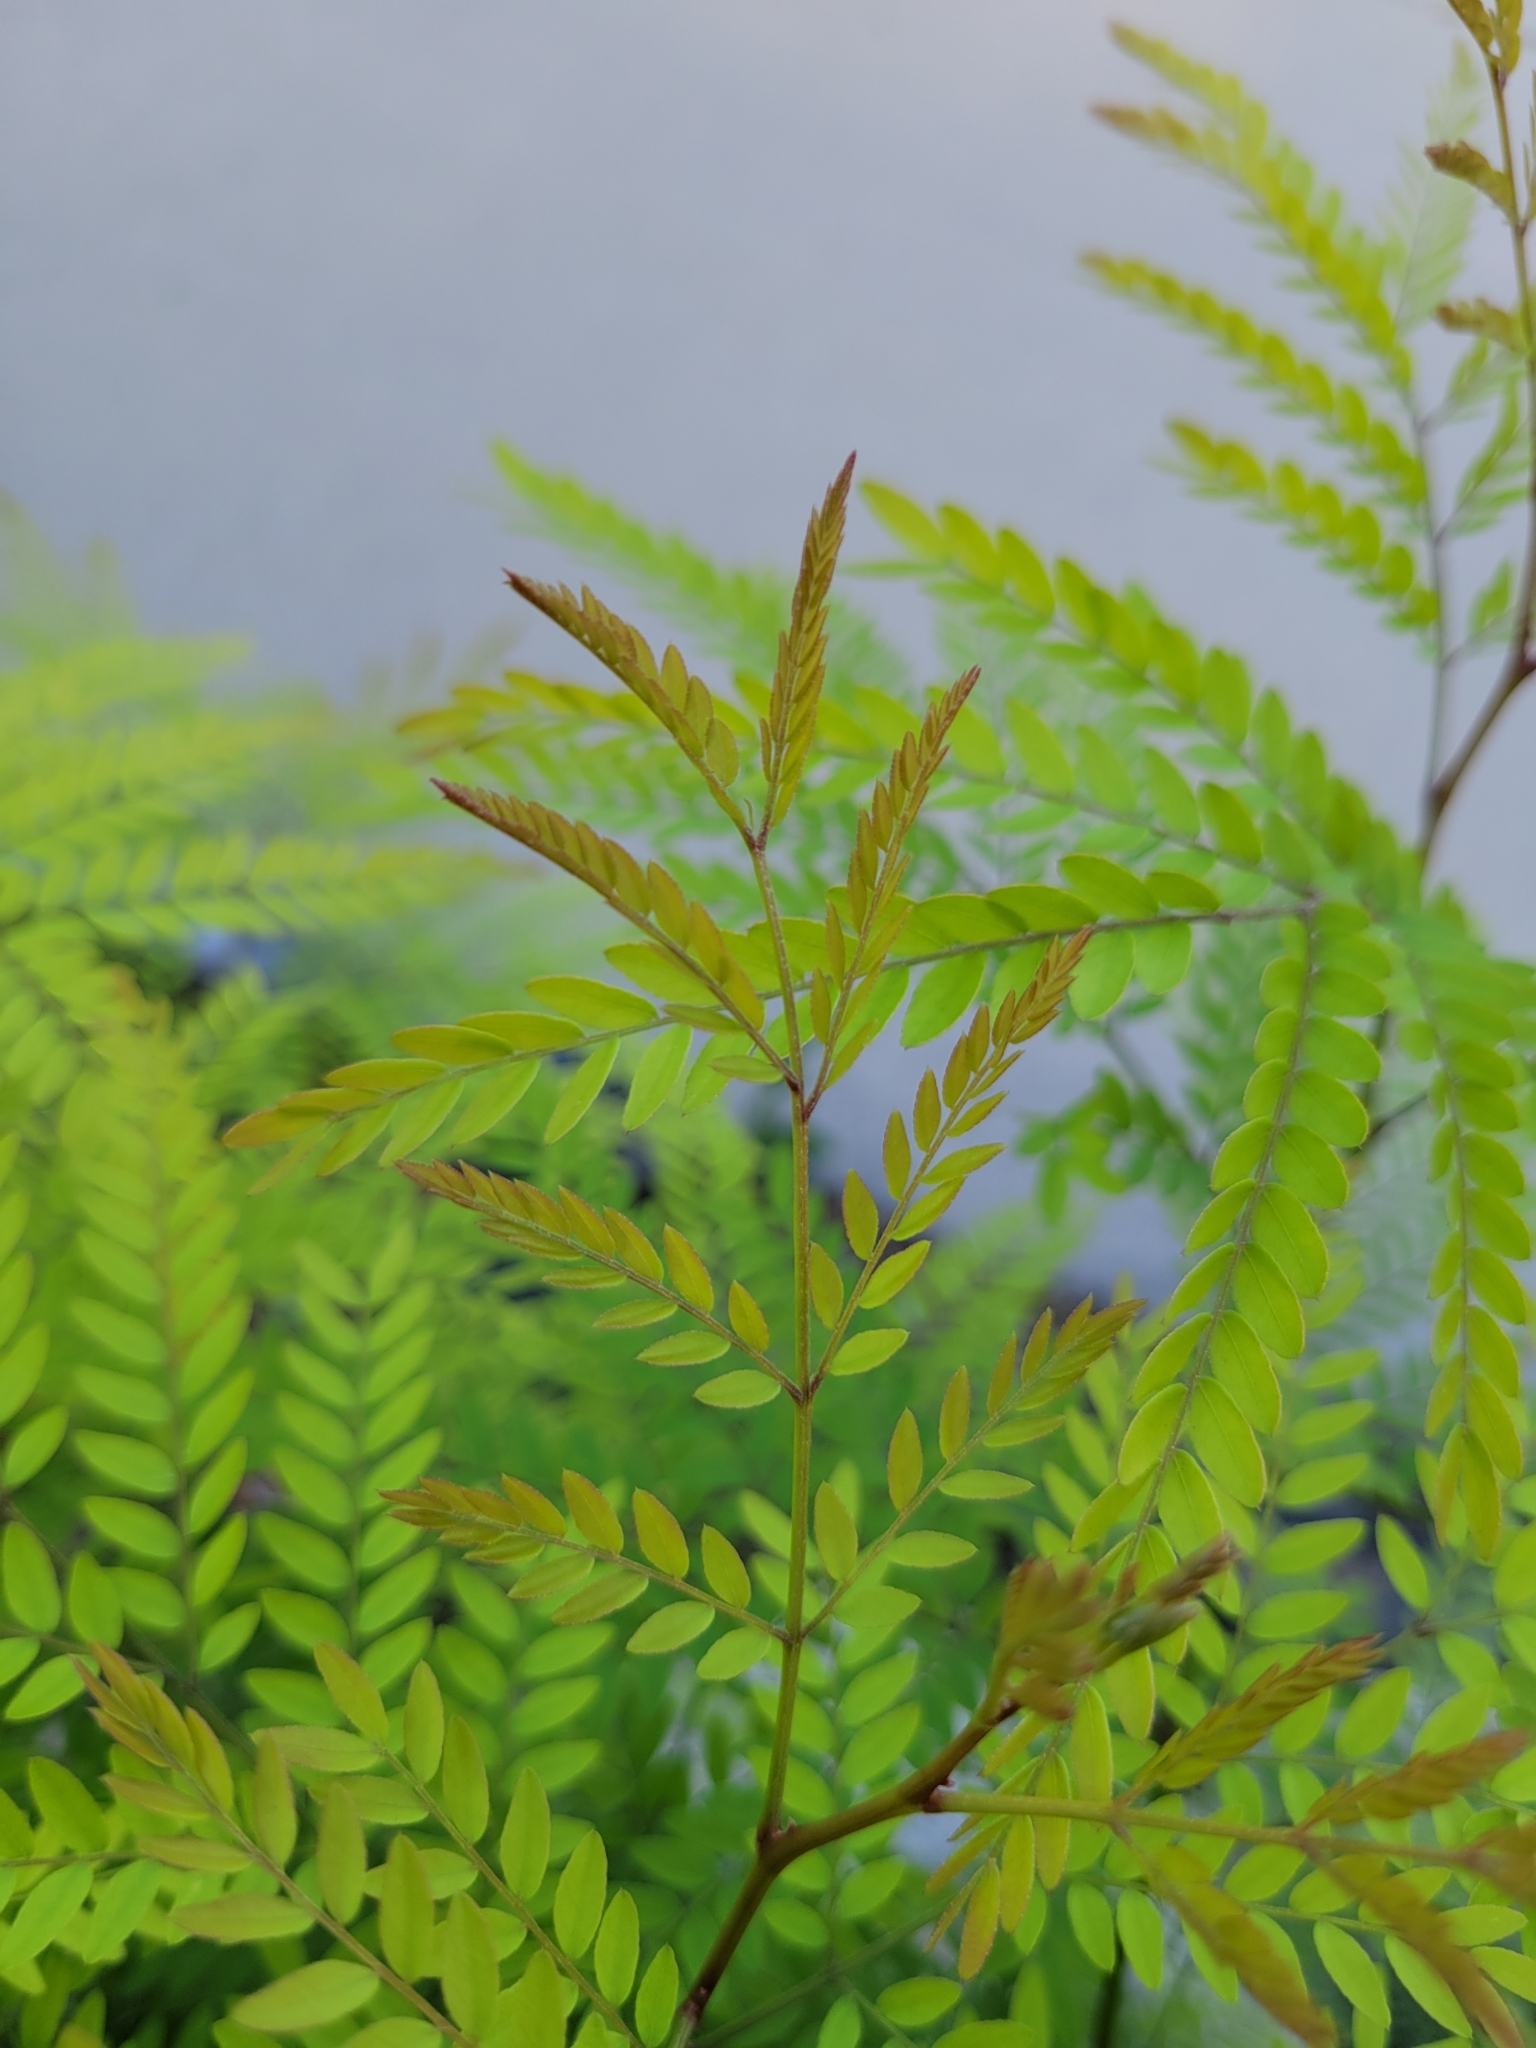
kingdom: Plantae
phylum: Tracheophyta
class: Magnoliopsida
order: Fabales
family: Fabaceae
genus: Gleditsia
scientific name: Gleditsia triacanthos
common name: Common honeylocust
